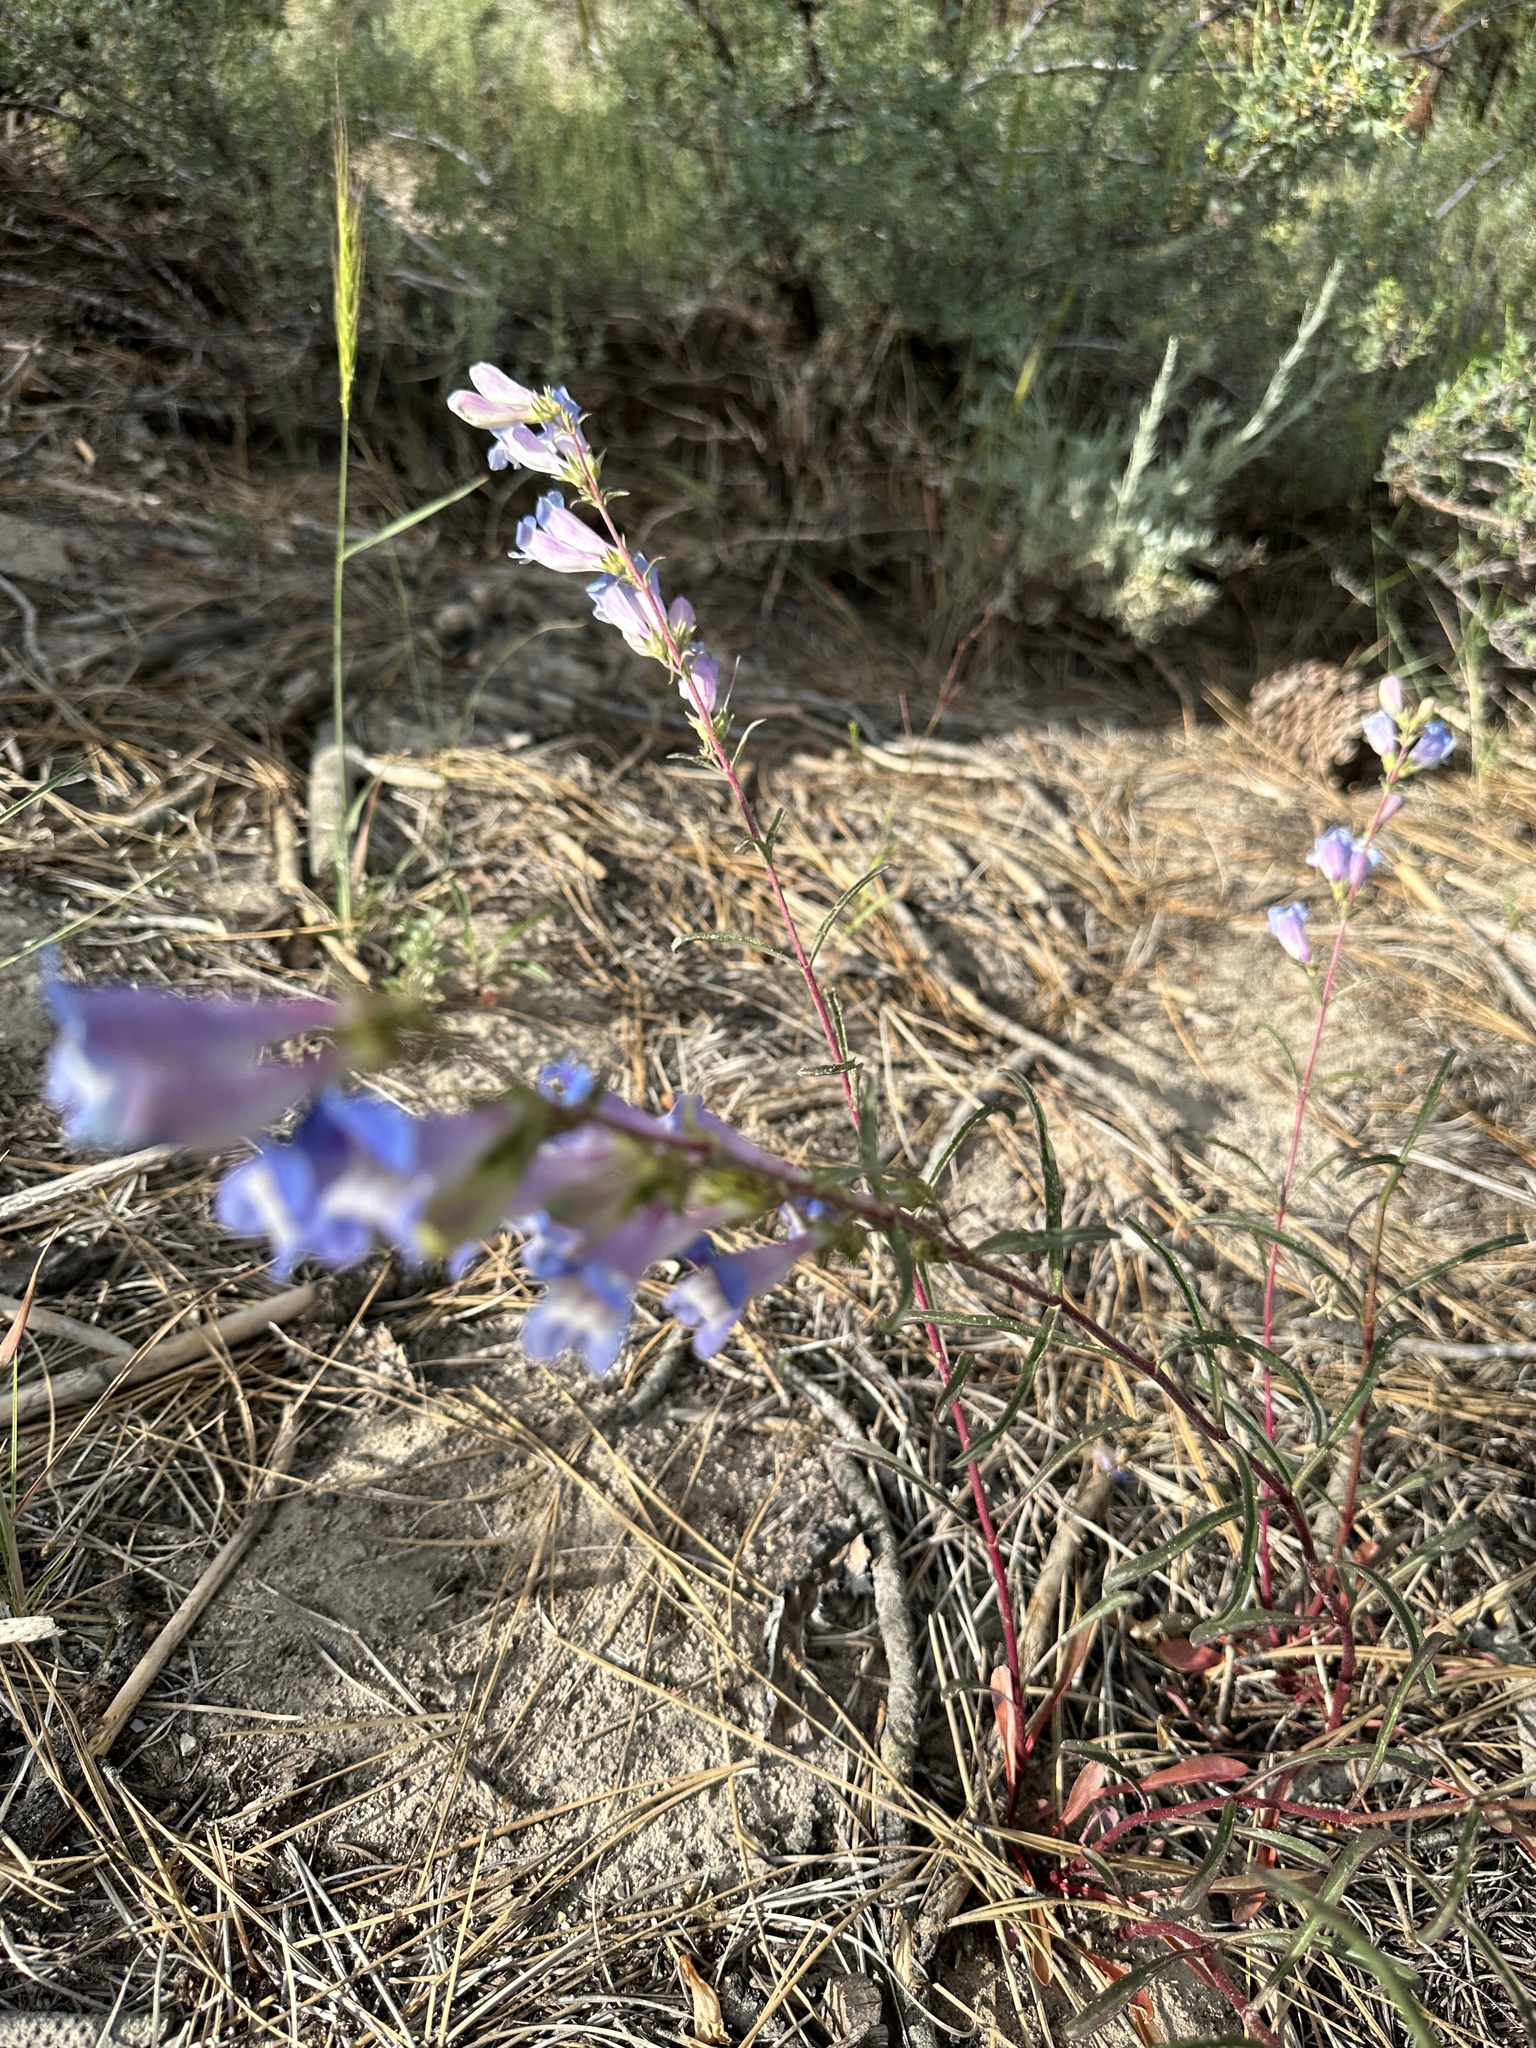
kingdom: Plantae
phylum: Tracheophyta
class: Magnoliopsida
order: Lamiales
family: Plantaginaceae
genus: Penstemon
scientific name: Penstemon speciosus
